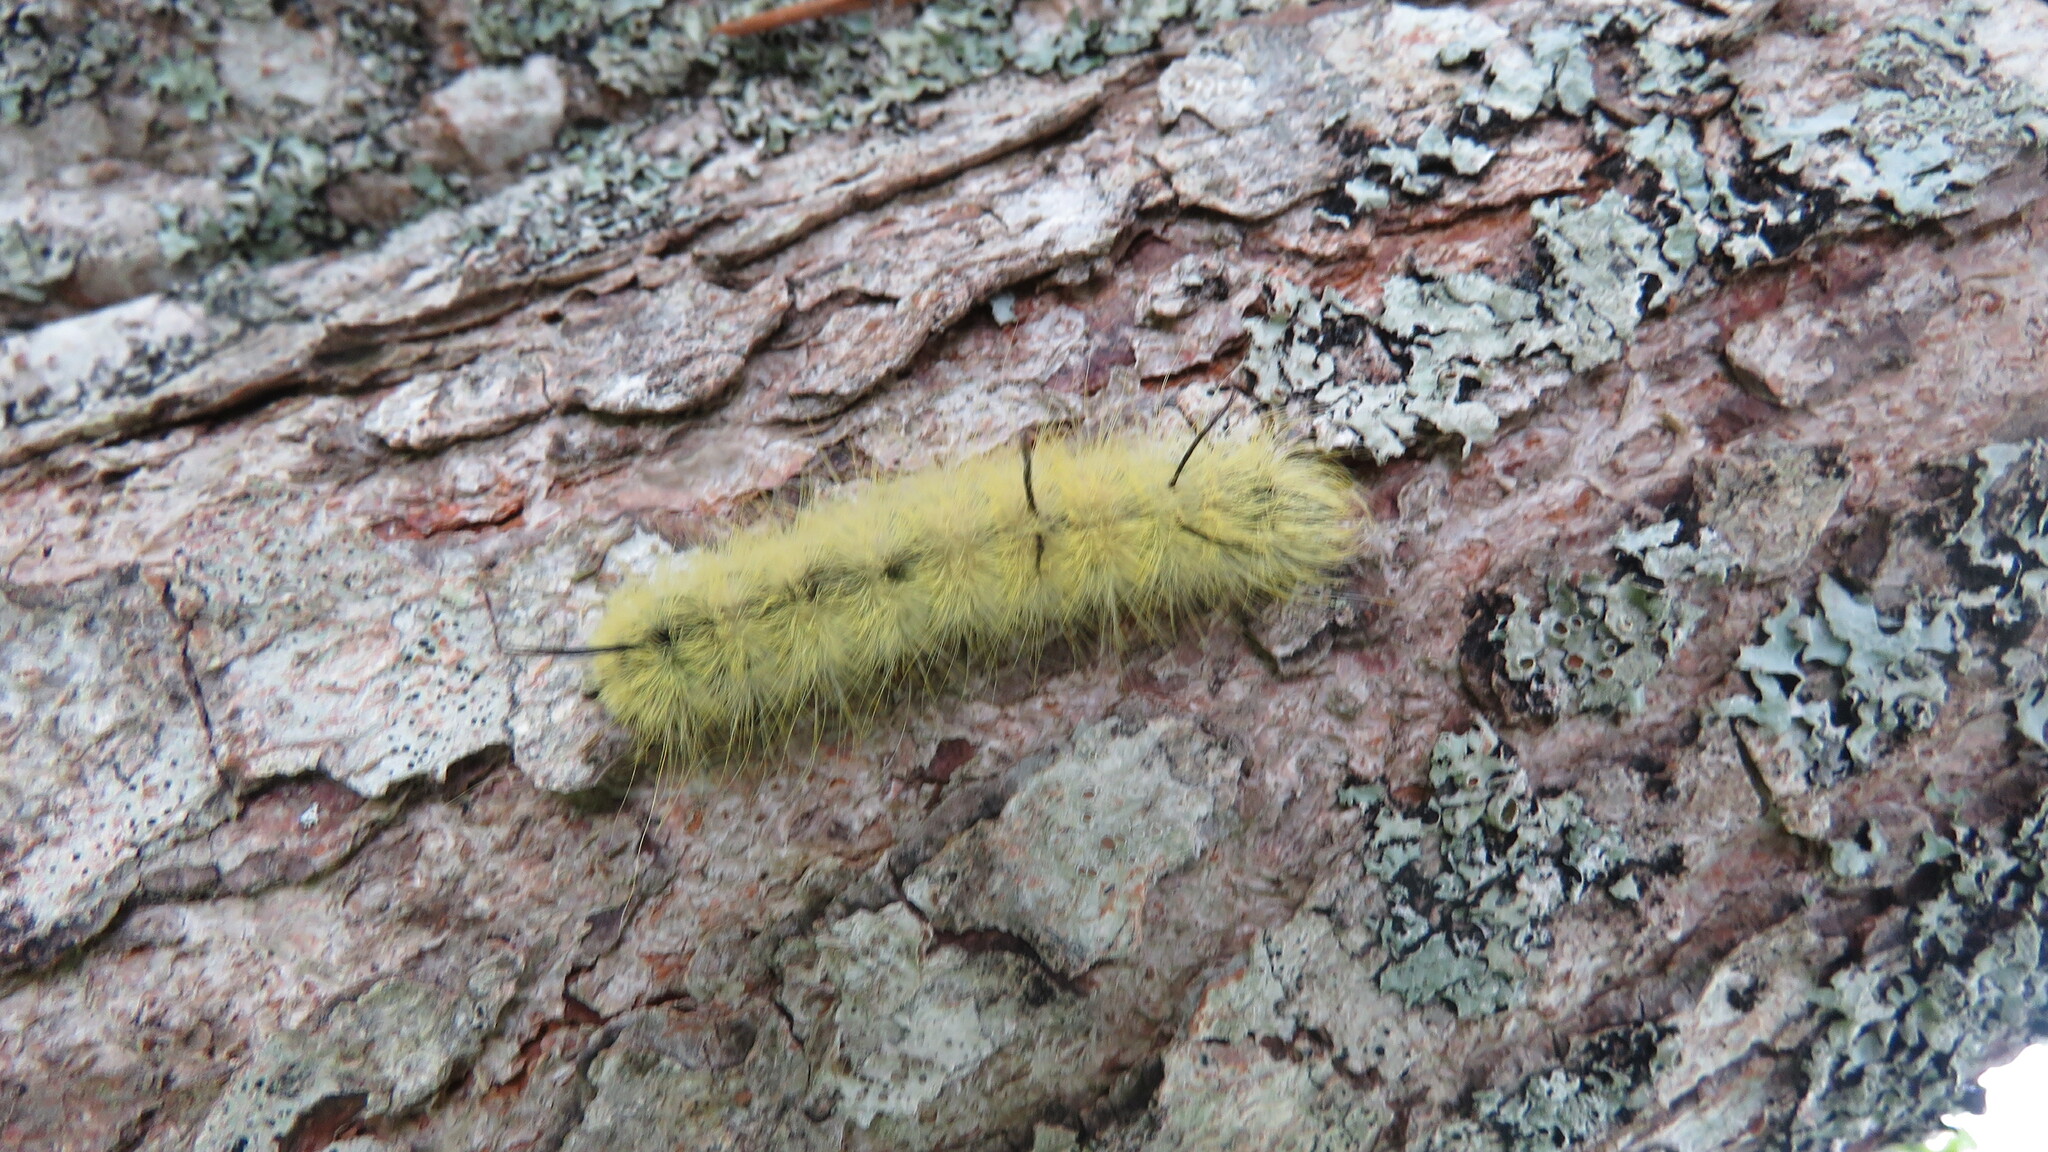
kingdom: Animalia
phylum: Arthropoda
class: Insecta
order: Lepidoptera
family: Noctuidae
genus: Acronicta
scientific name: Acronicta americana
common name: American dagger
